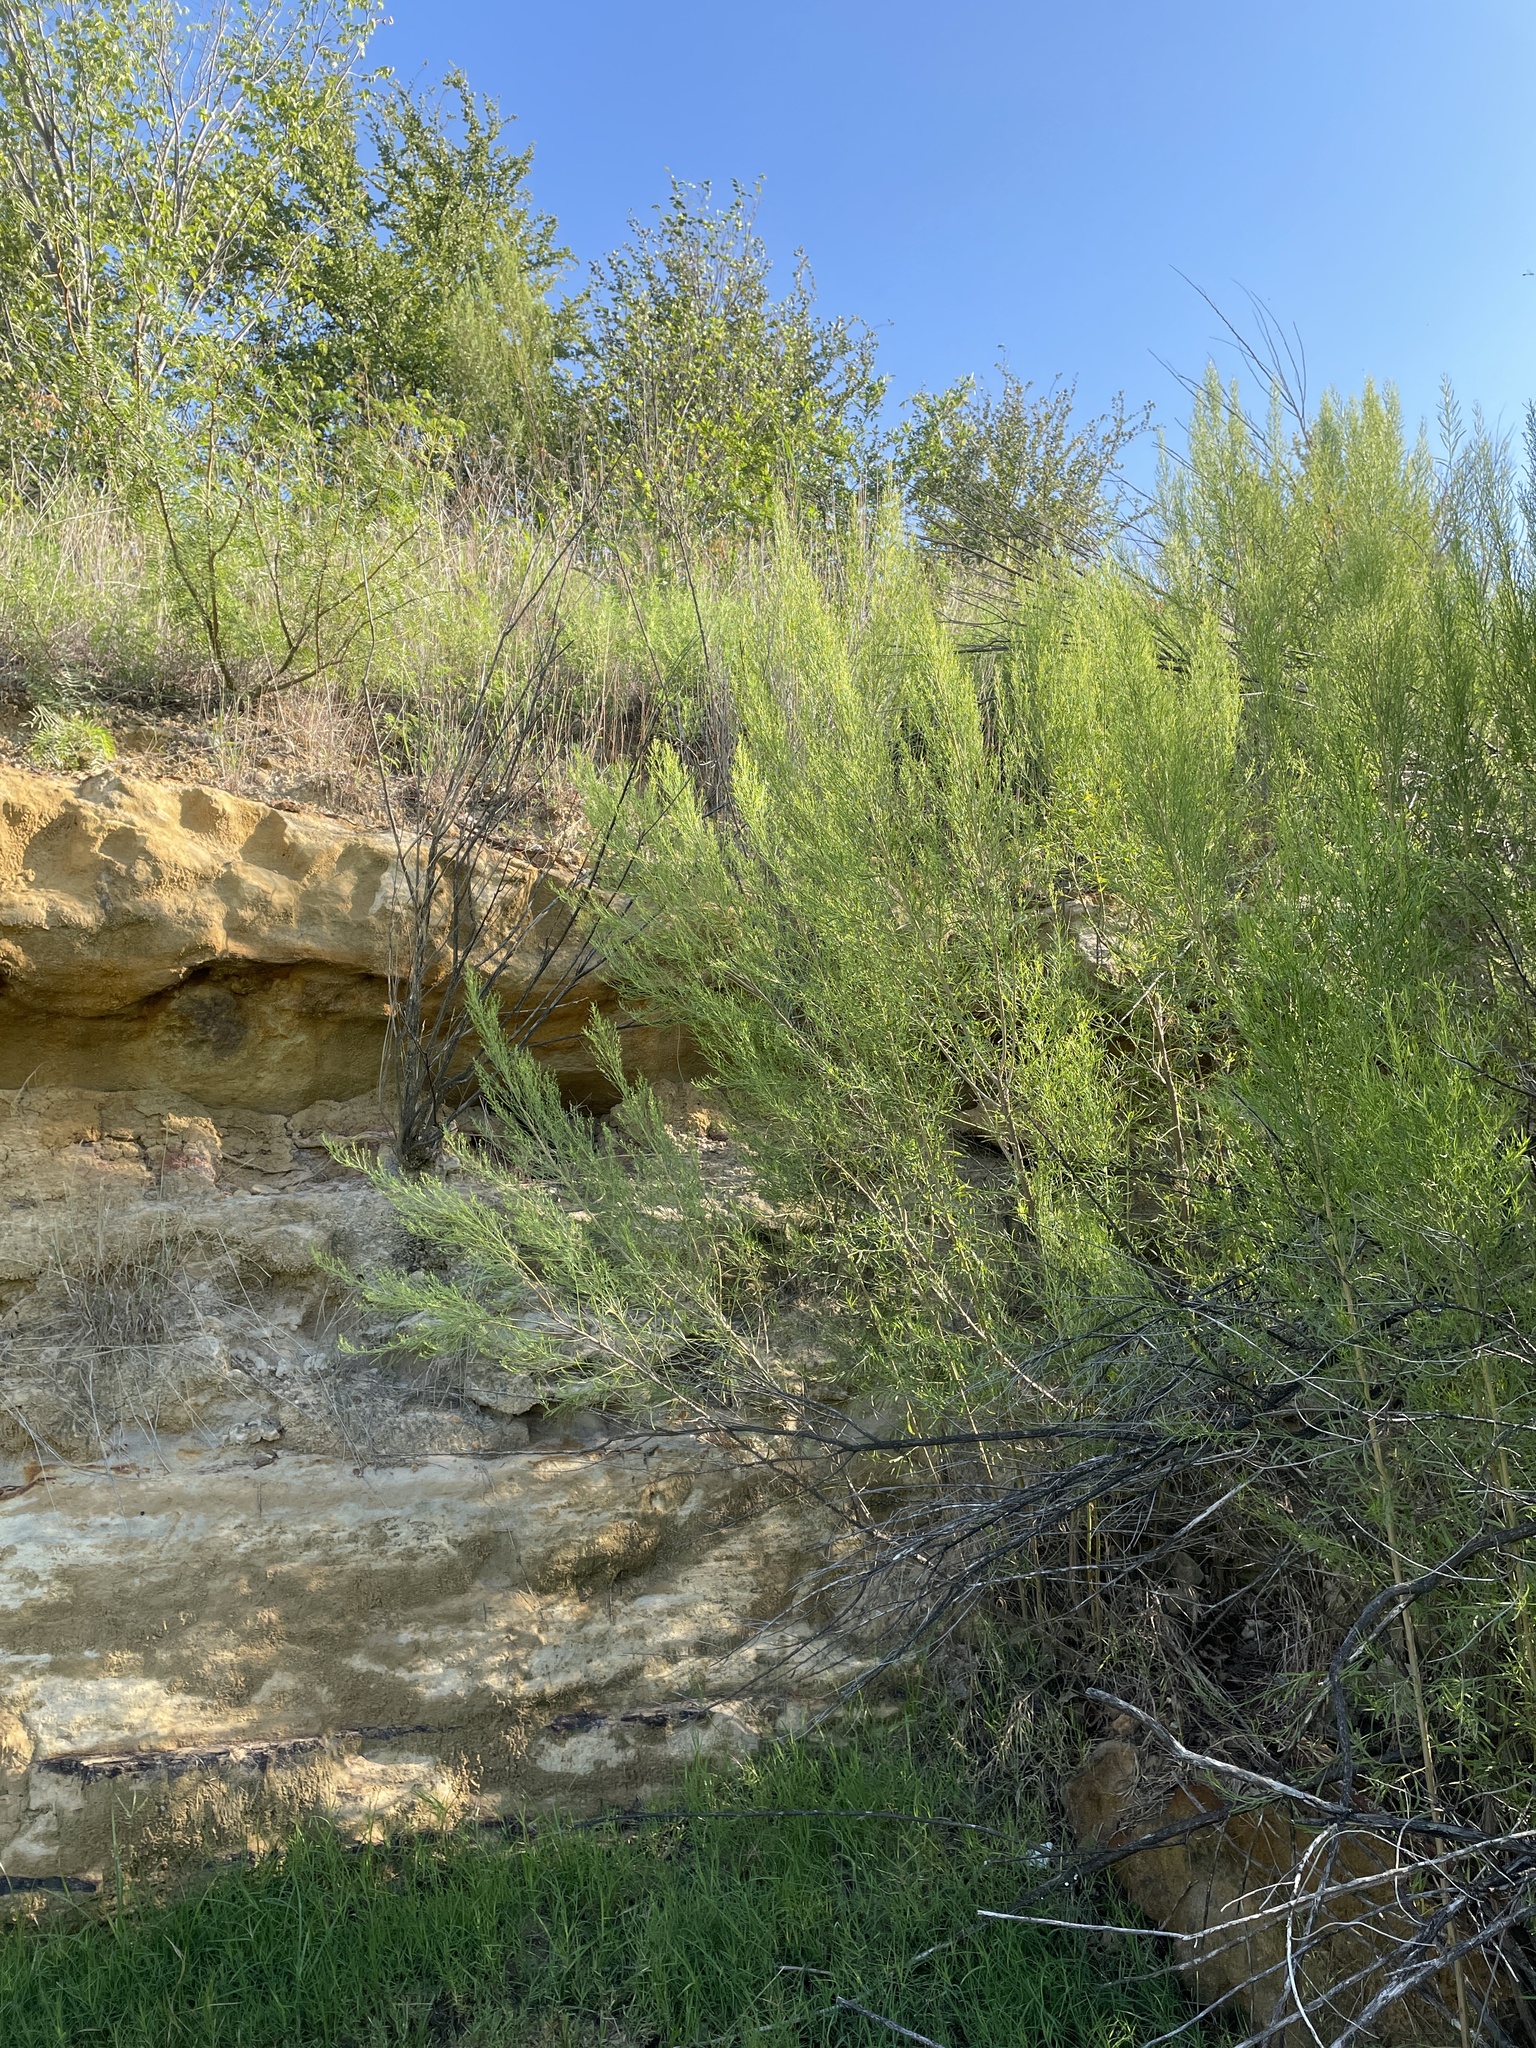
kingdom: Plantae
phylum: Tracheophyta
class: Magnoliopsida
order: Asterales
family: Asteraceae
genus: Baccharis
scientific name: Baccharis neglecta
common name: Roosevelt-weed
